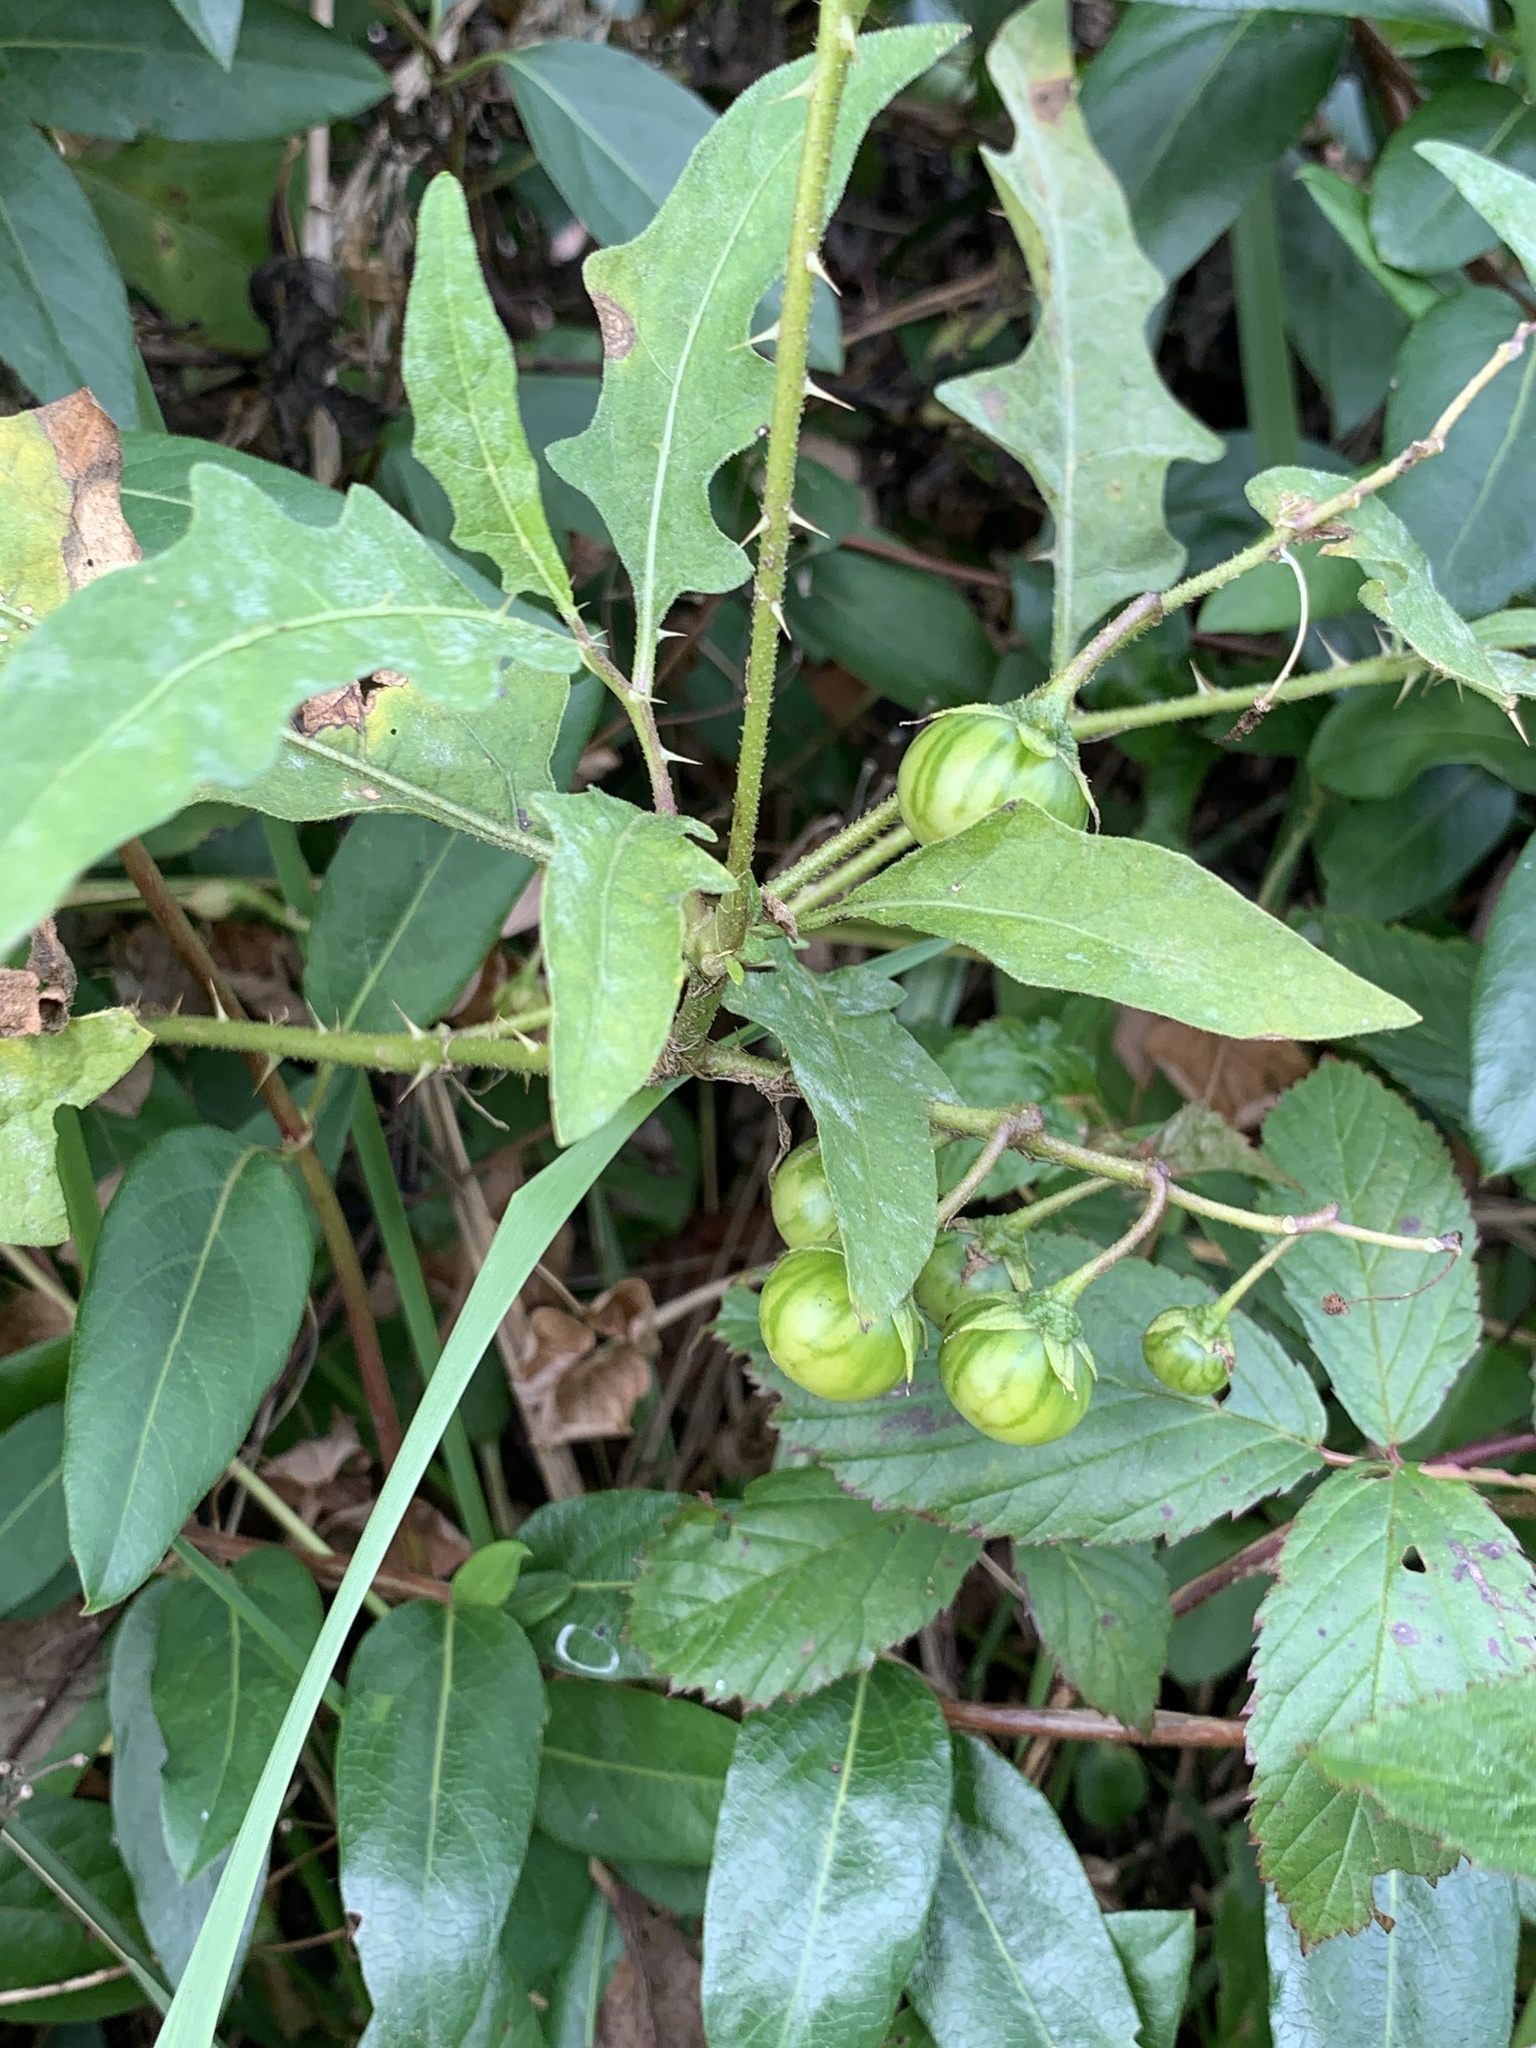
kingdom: Plantae
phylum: Tracheophyta
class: Magnoliopsida
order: Solanales
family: Solanaceae
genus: Solanum
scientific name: Solanum carolinense
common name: Horse-nettle
